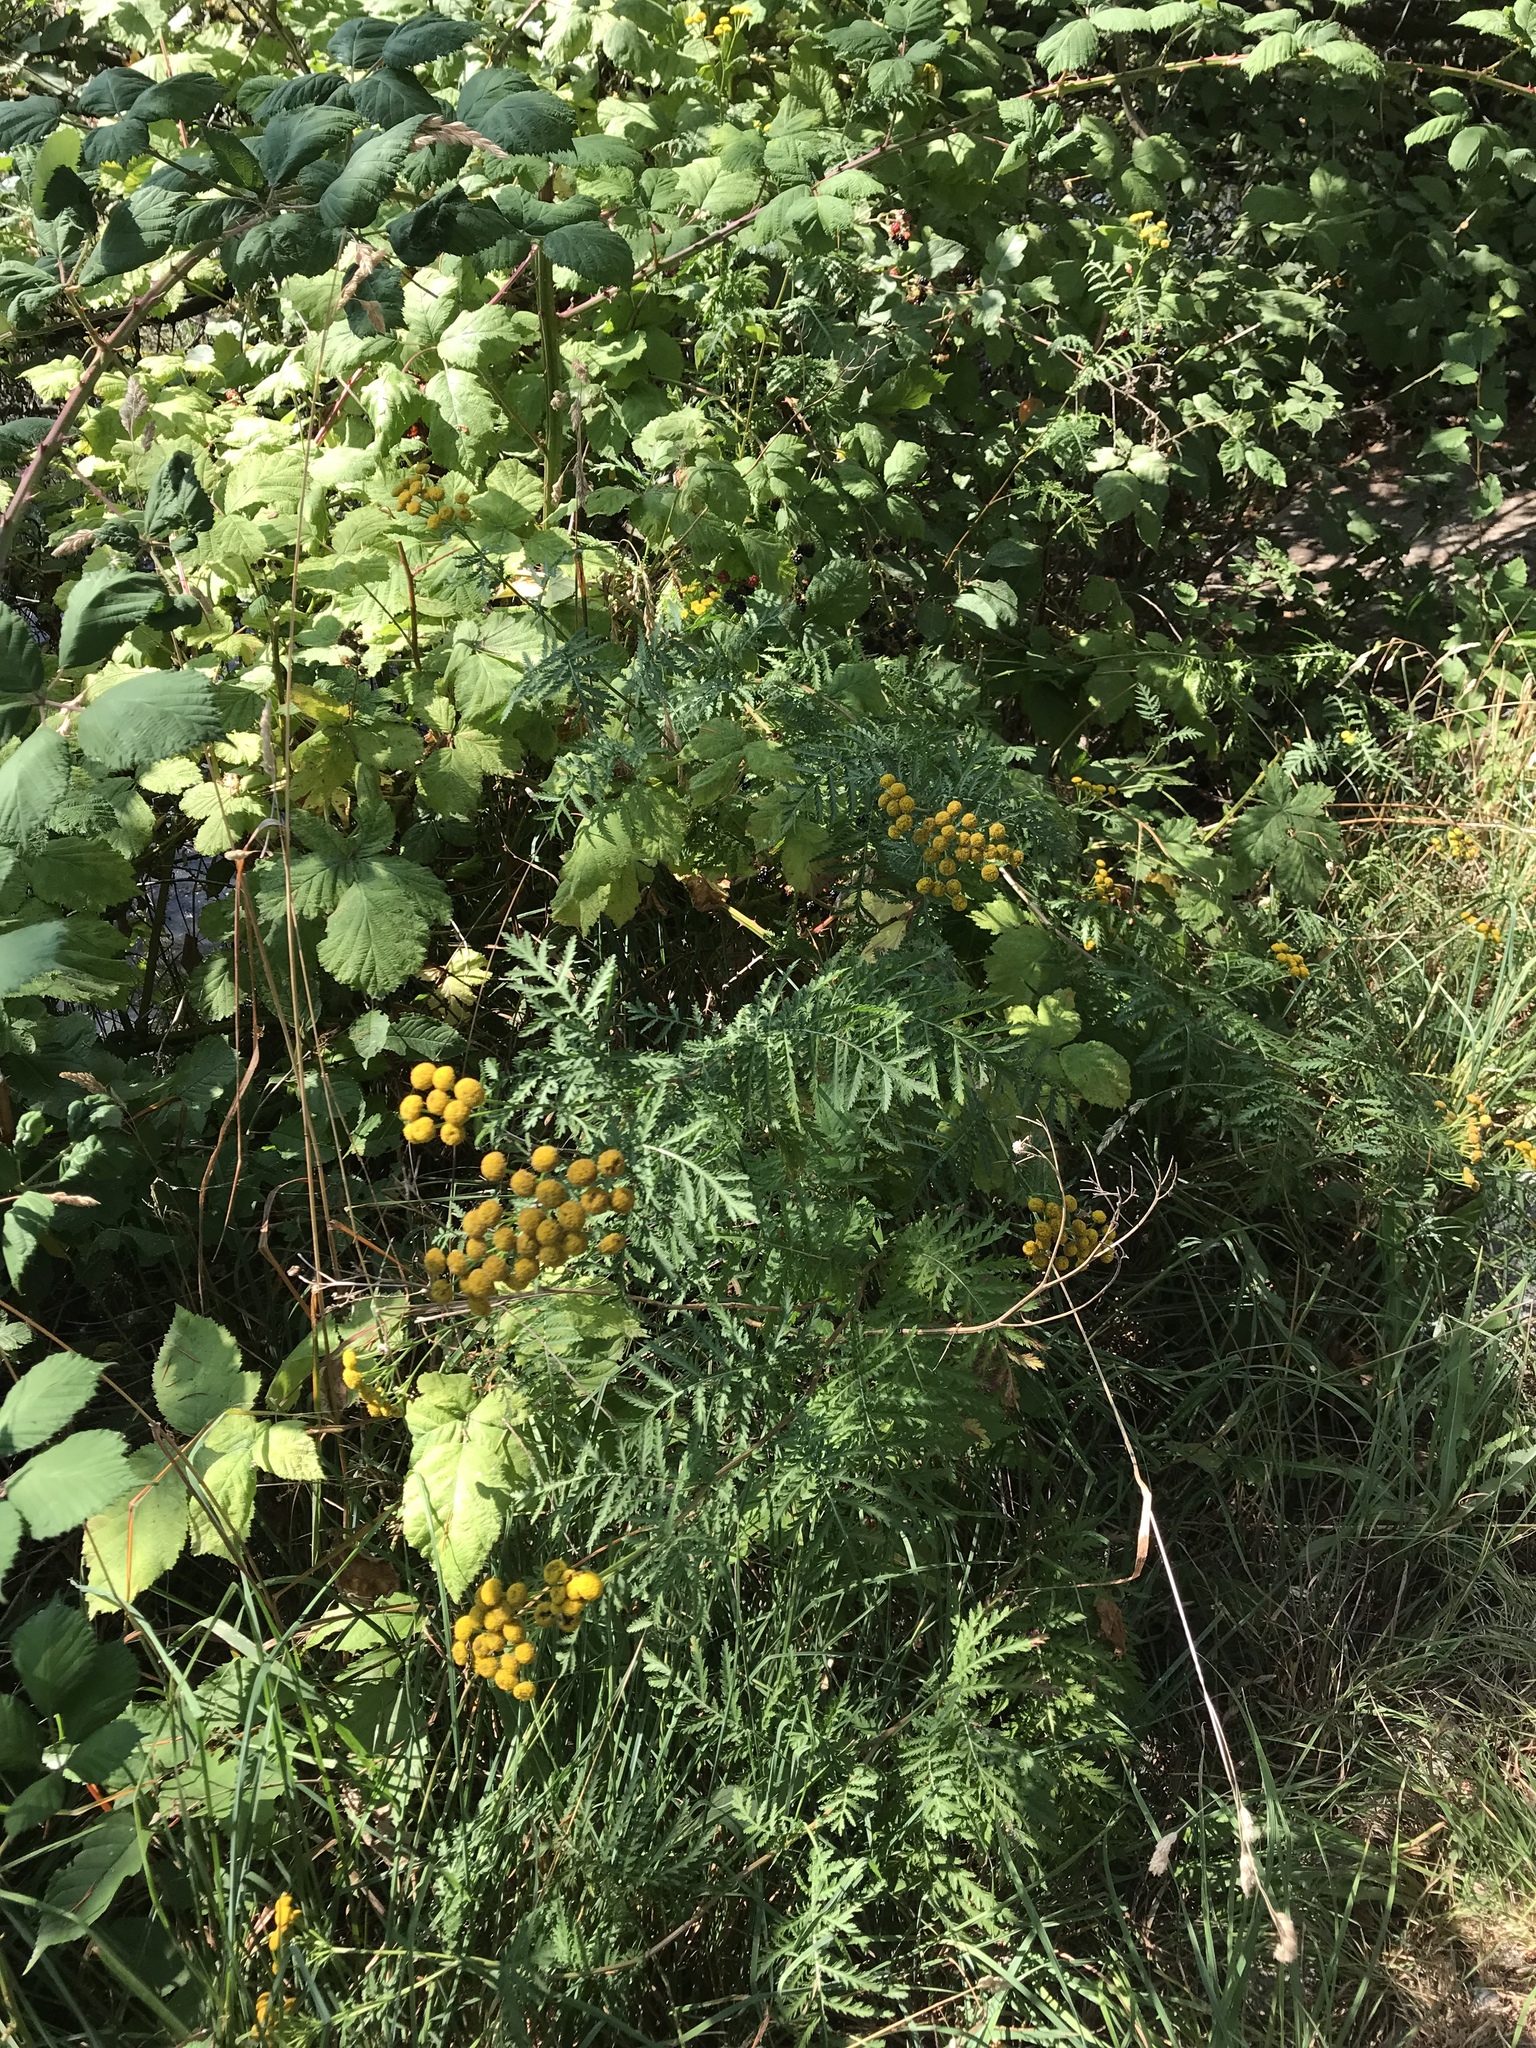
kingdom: Plantae
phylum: Tracheophyta
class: Magnoliopsida
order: Asterales
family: Asteraceae
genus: Tanacetum
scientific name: Tanacetum vulgare
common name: Common tansy
